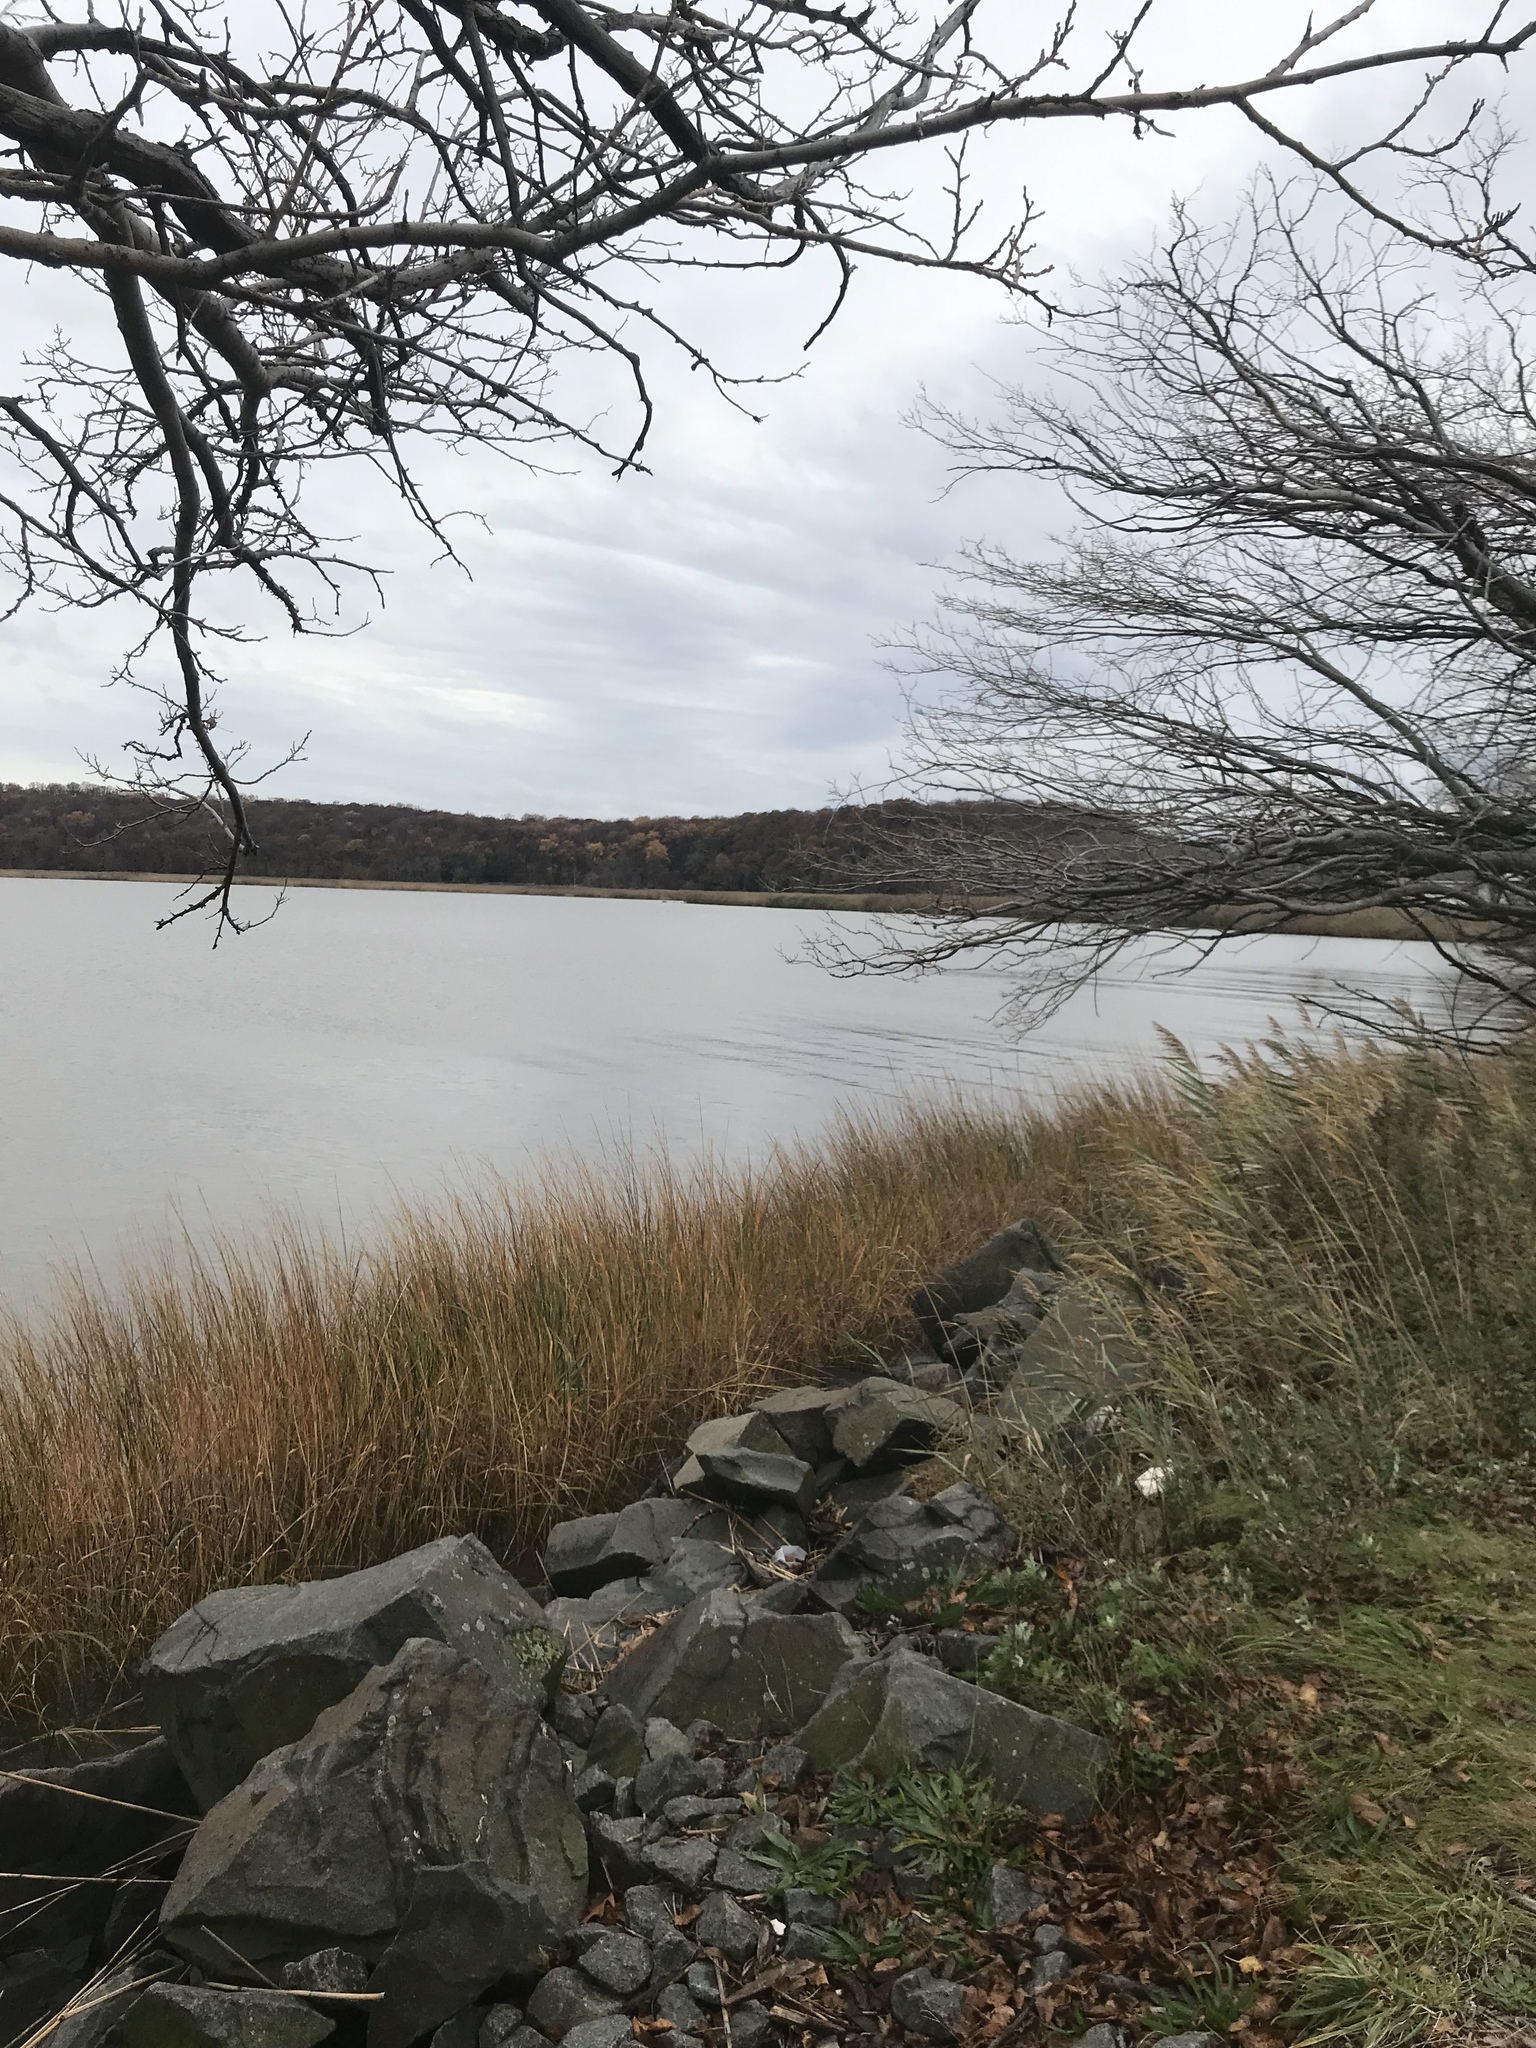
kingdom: Animalia
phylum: Chordata
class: Aves
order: Pelecaniformes
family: Ardeidae
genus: Ardea
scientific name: Ardea herodias
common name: Great blue heron
